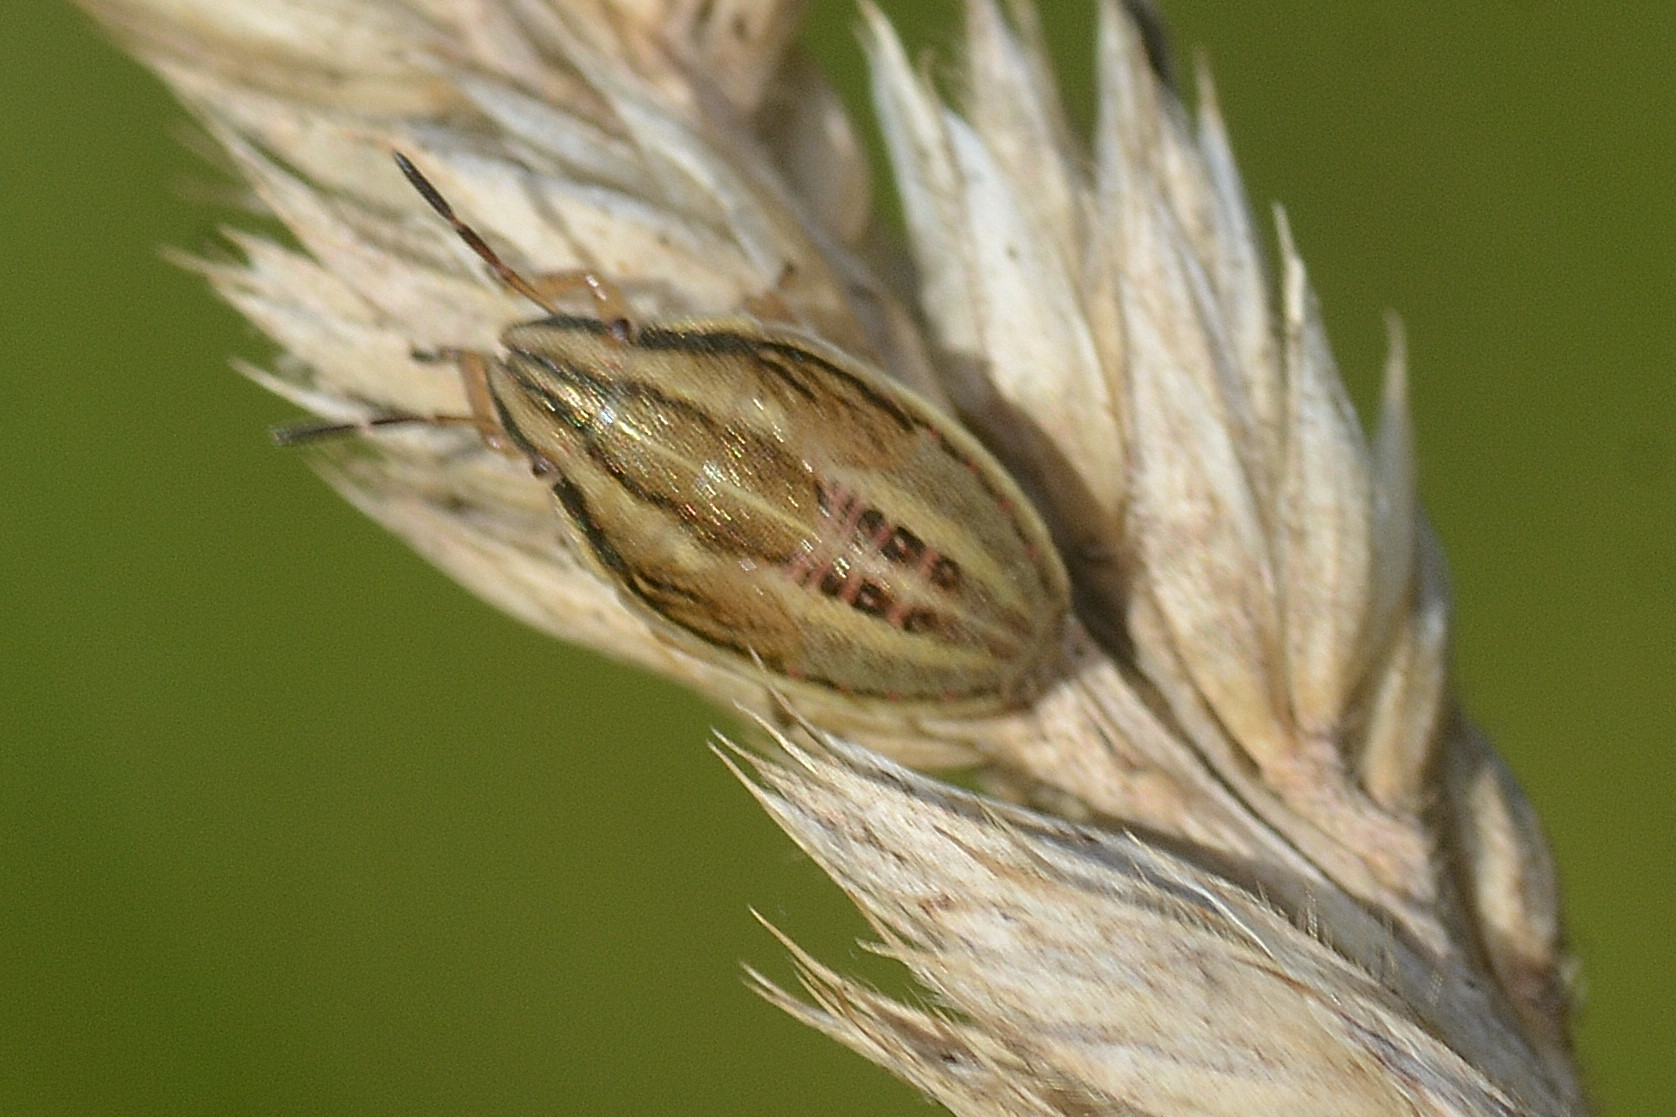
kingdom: Animalia
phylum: Arthropoda
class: Insecta
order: Hemiptera
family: Pentatomidae
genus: Aelia
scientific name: Aelia acuminata
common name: Bishop's mitre
